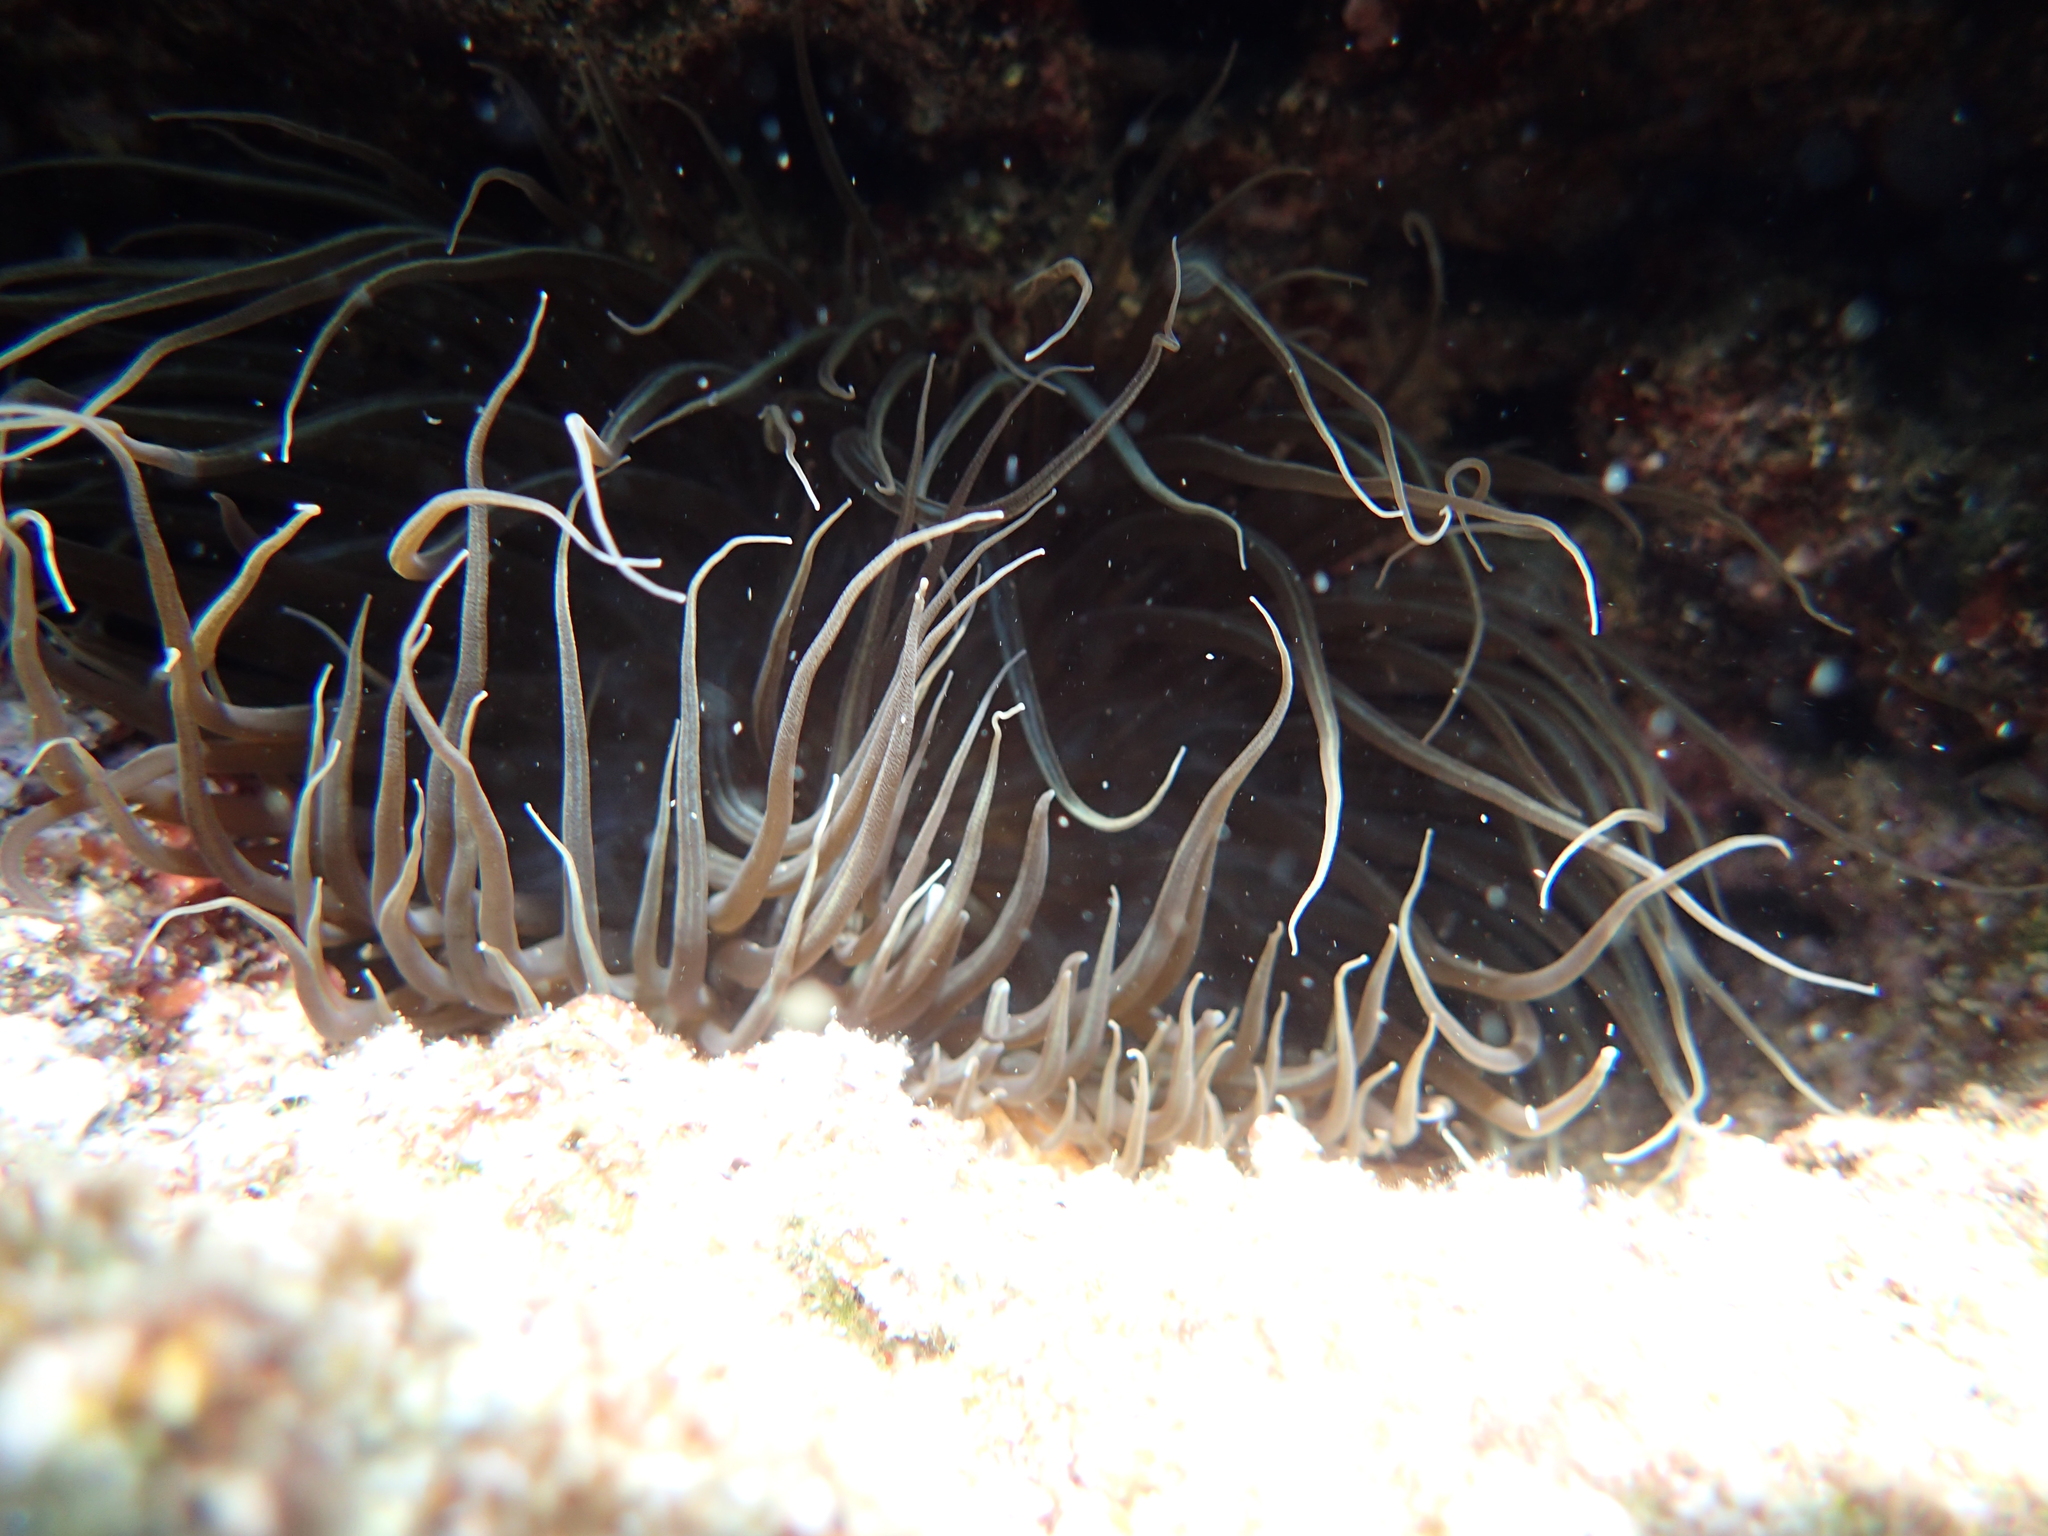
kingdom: Animalia
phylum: Cnidaria
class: Anthozoa
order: Actiniaria
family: Actiniidae
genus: Anemonia
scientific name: Anemonia viridis
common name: Snakelocks anemone
